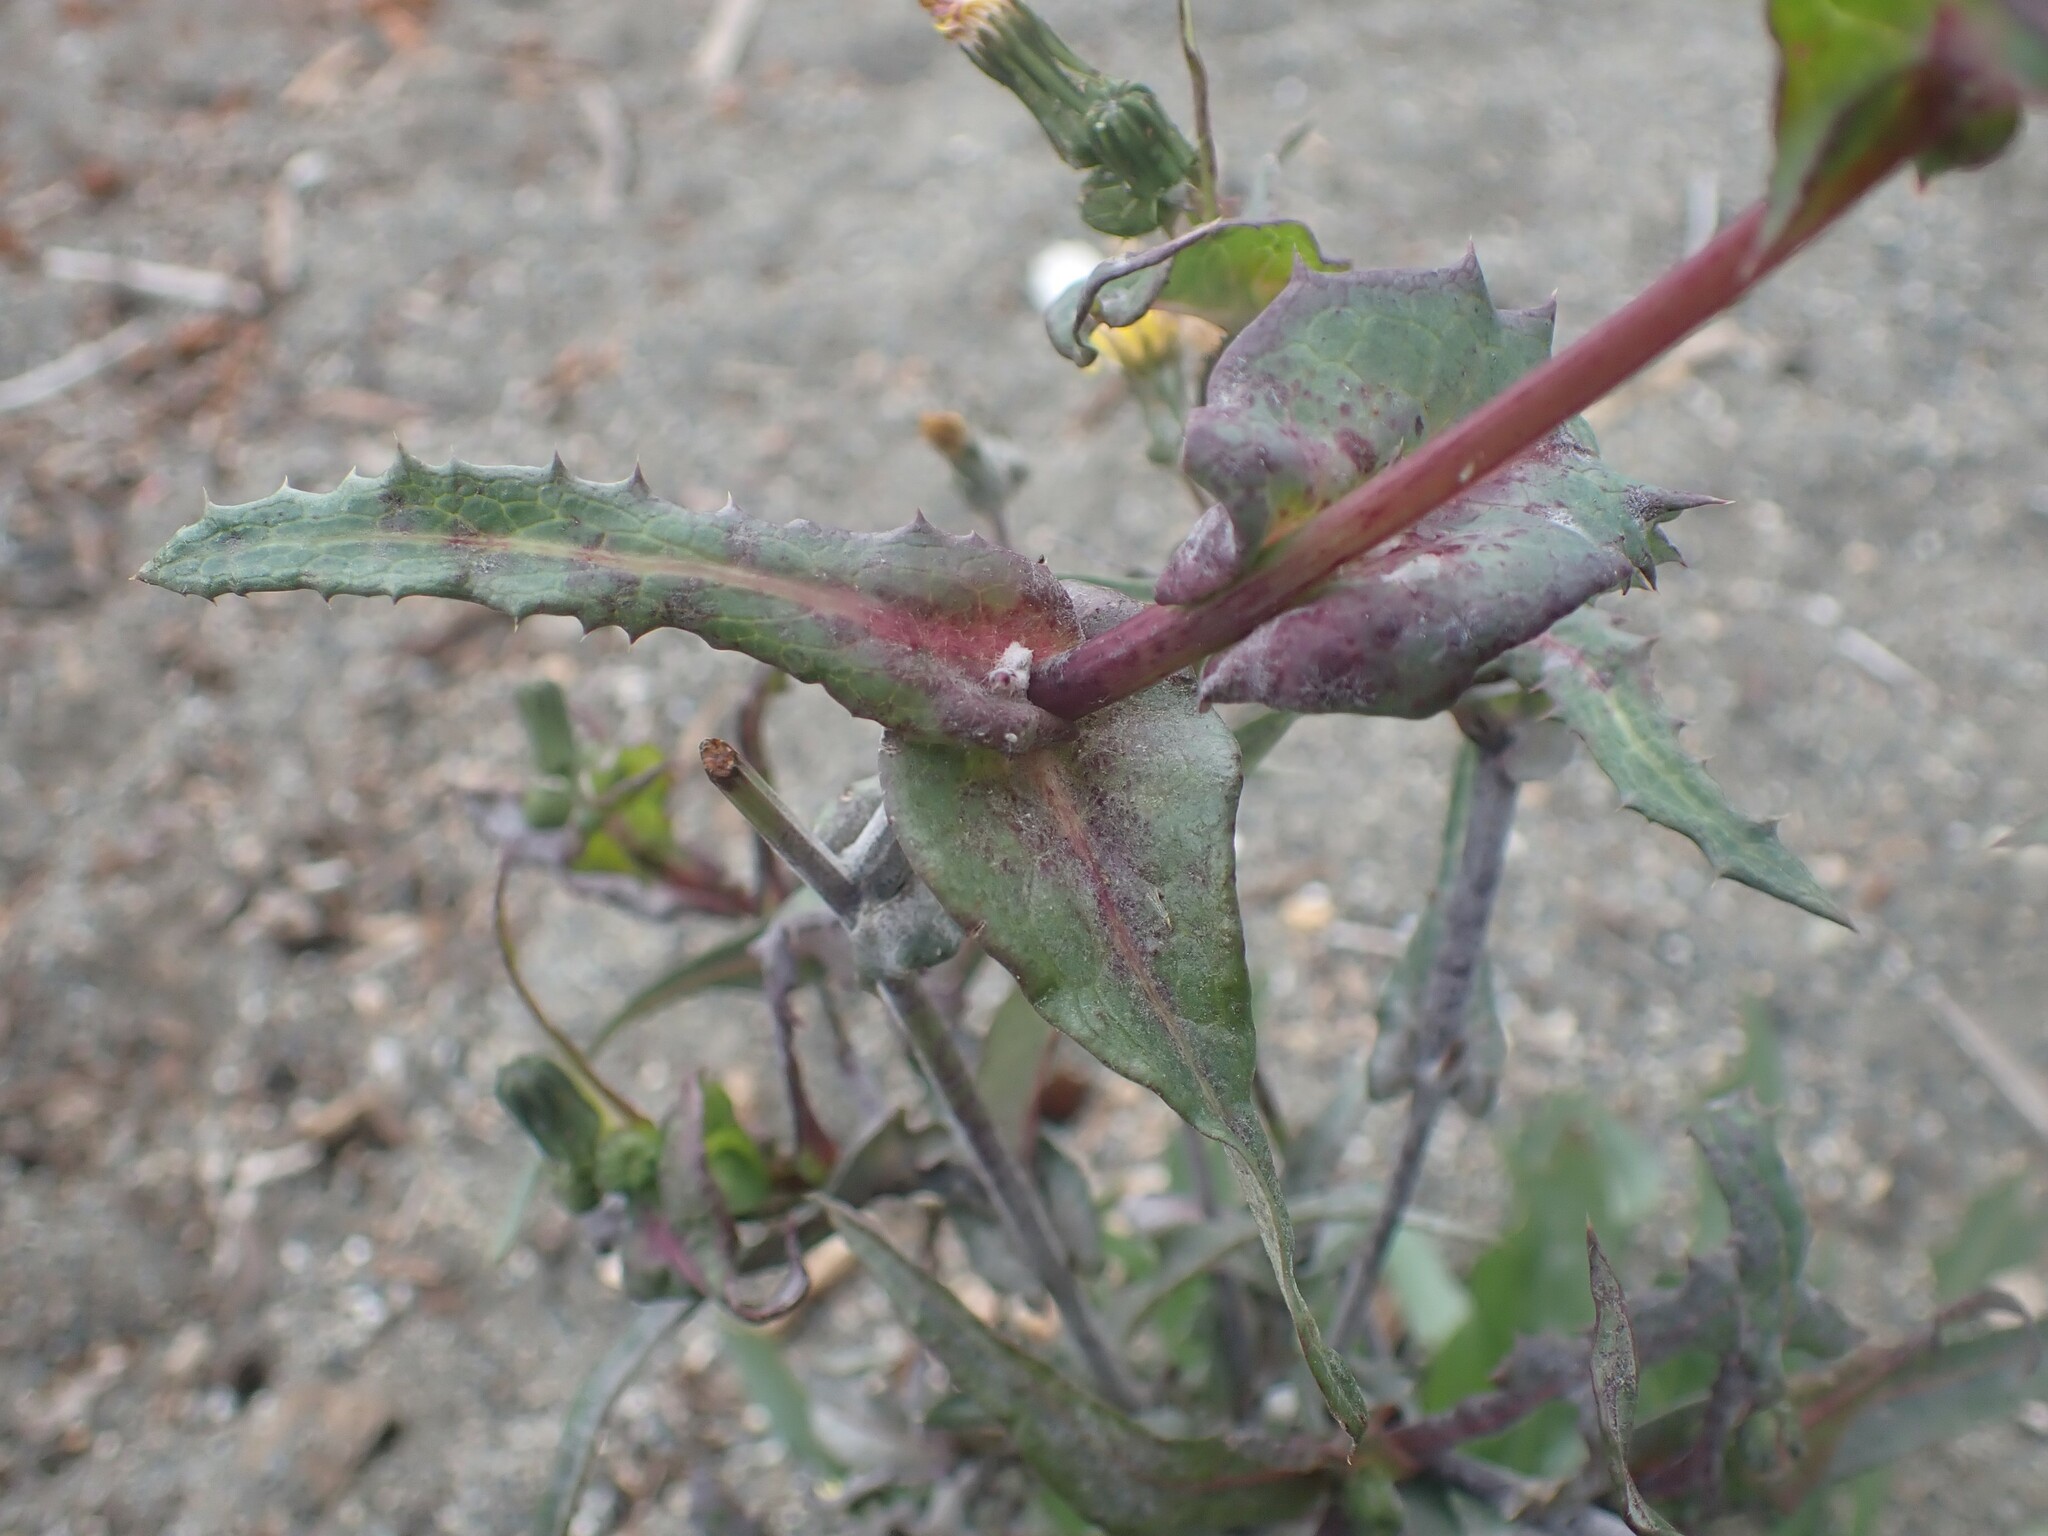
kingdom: Plantae
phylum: Tracheophyta
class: Magnoliopsida
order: Asterales
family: Asteraceae
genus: Sonchus
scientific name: Sonchus oleraceus
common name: Common sowthistle
